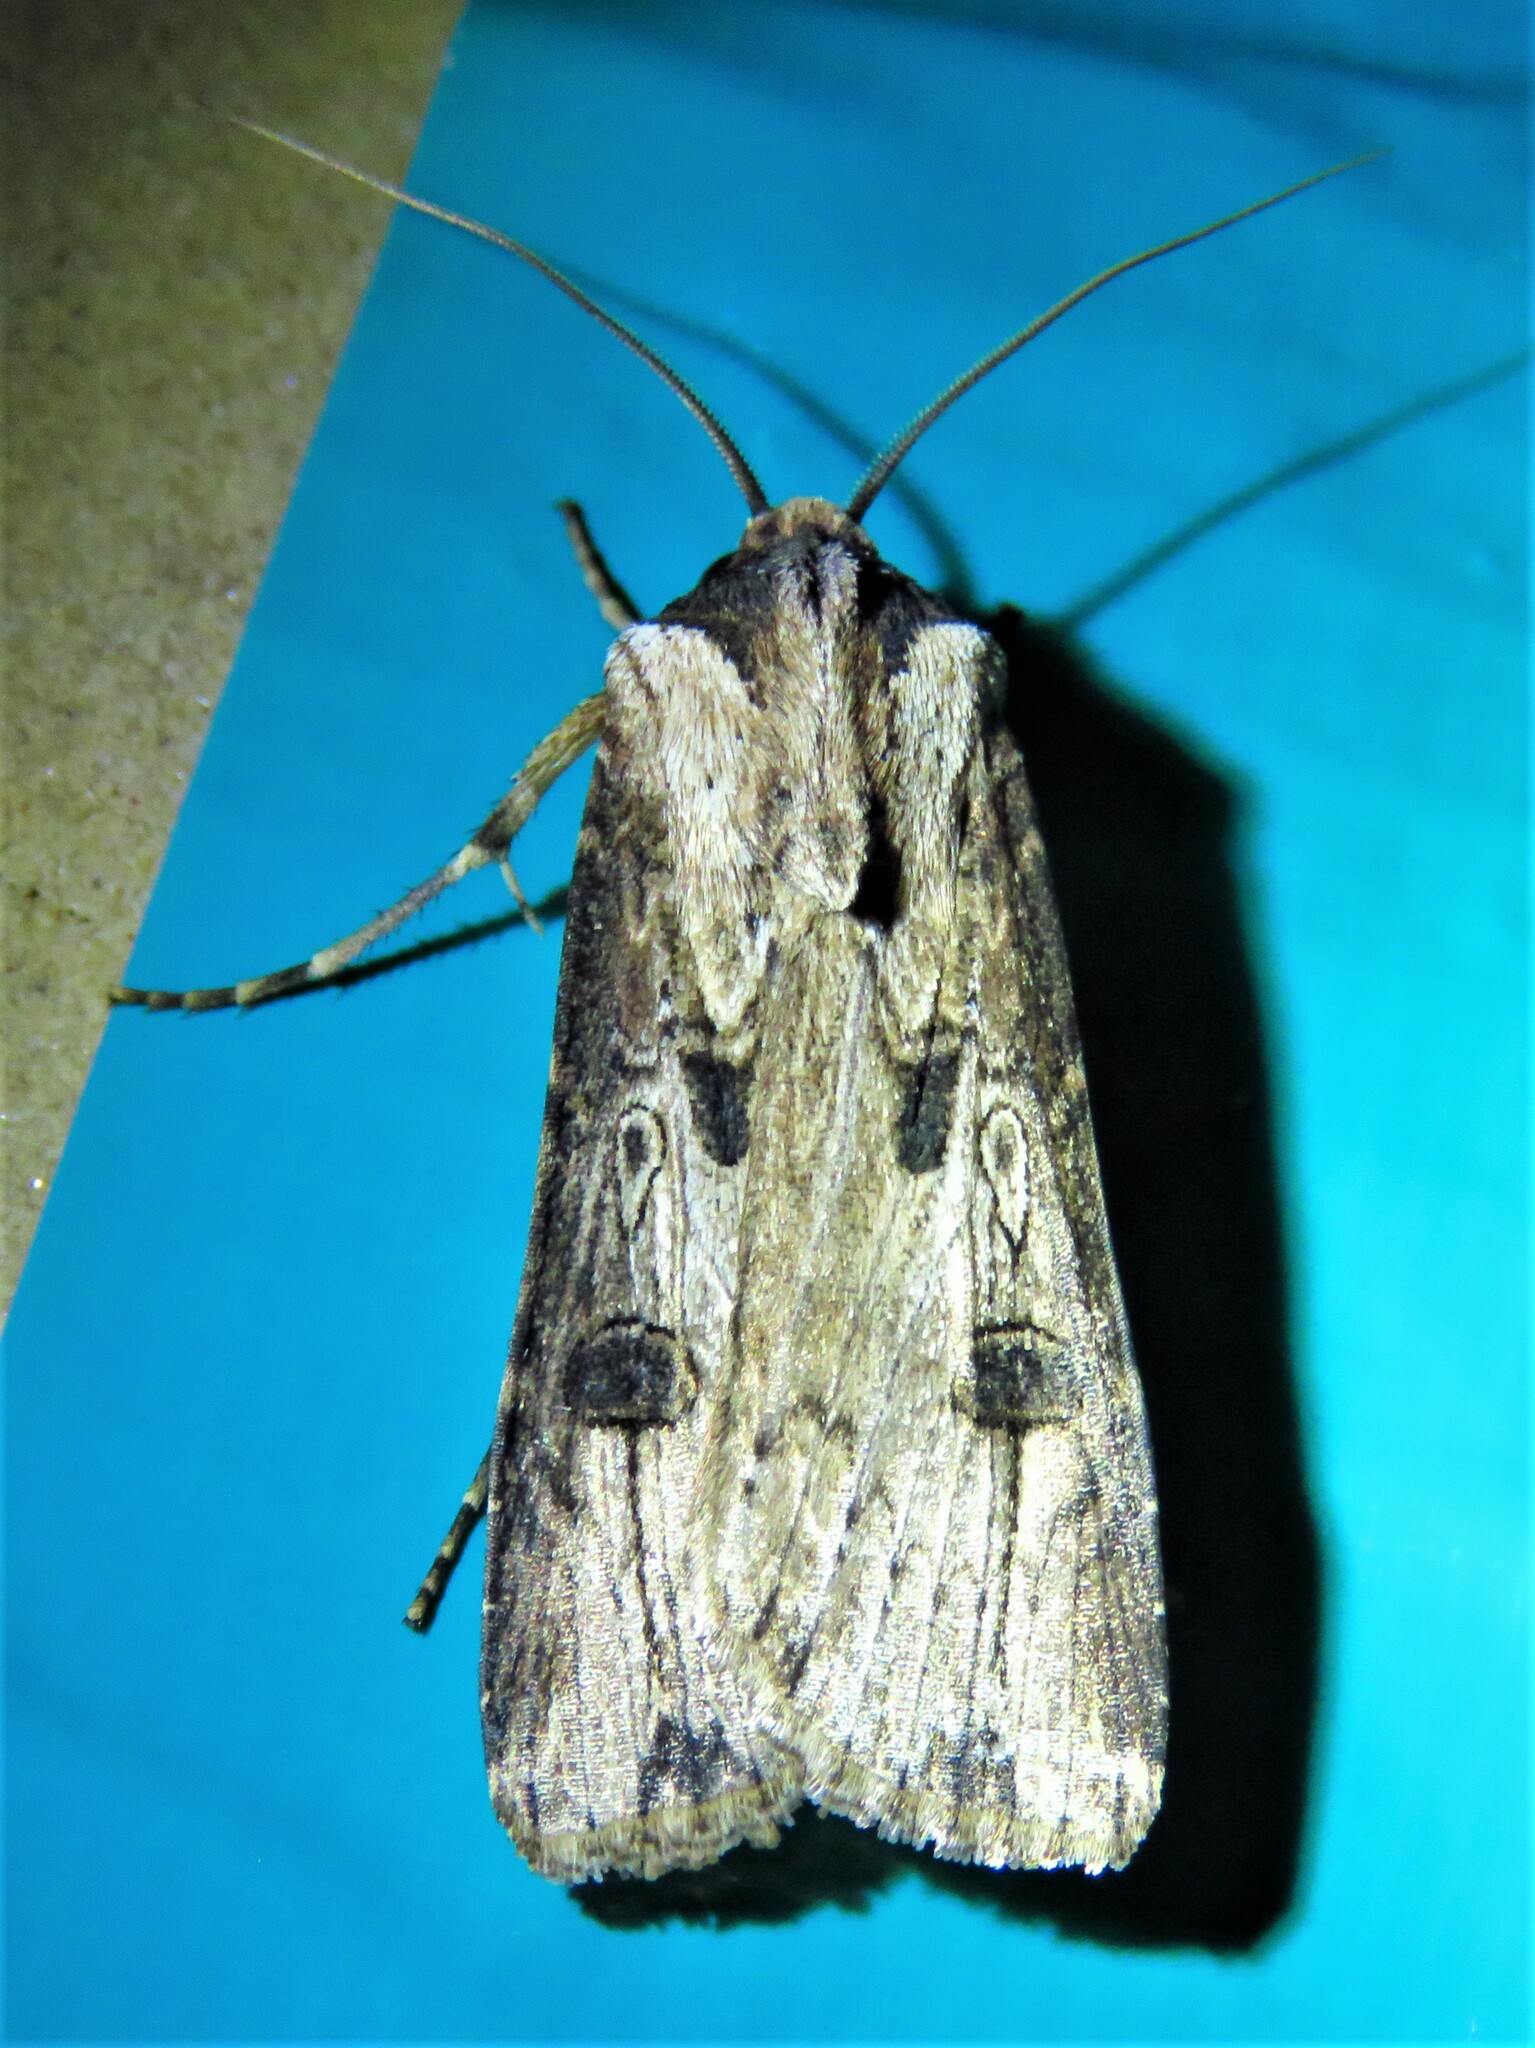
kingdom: Animalia
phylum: Arthropoda
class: Insecta
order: Lepidoptera
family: Noctuidae
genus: Agrotis
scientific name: Agrotis malefida
